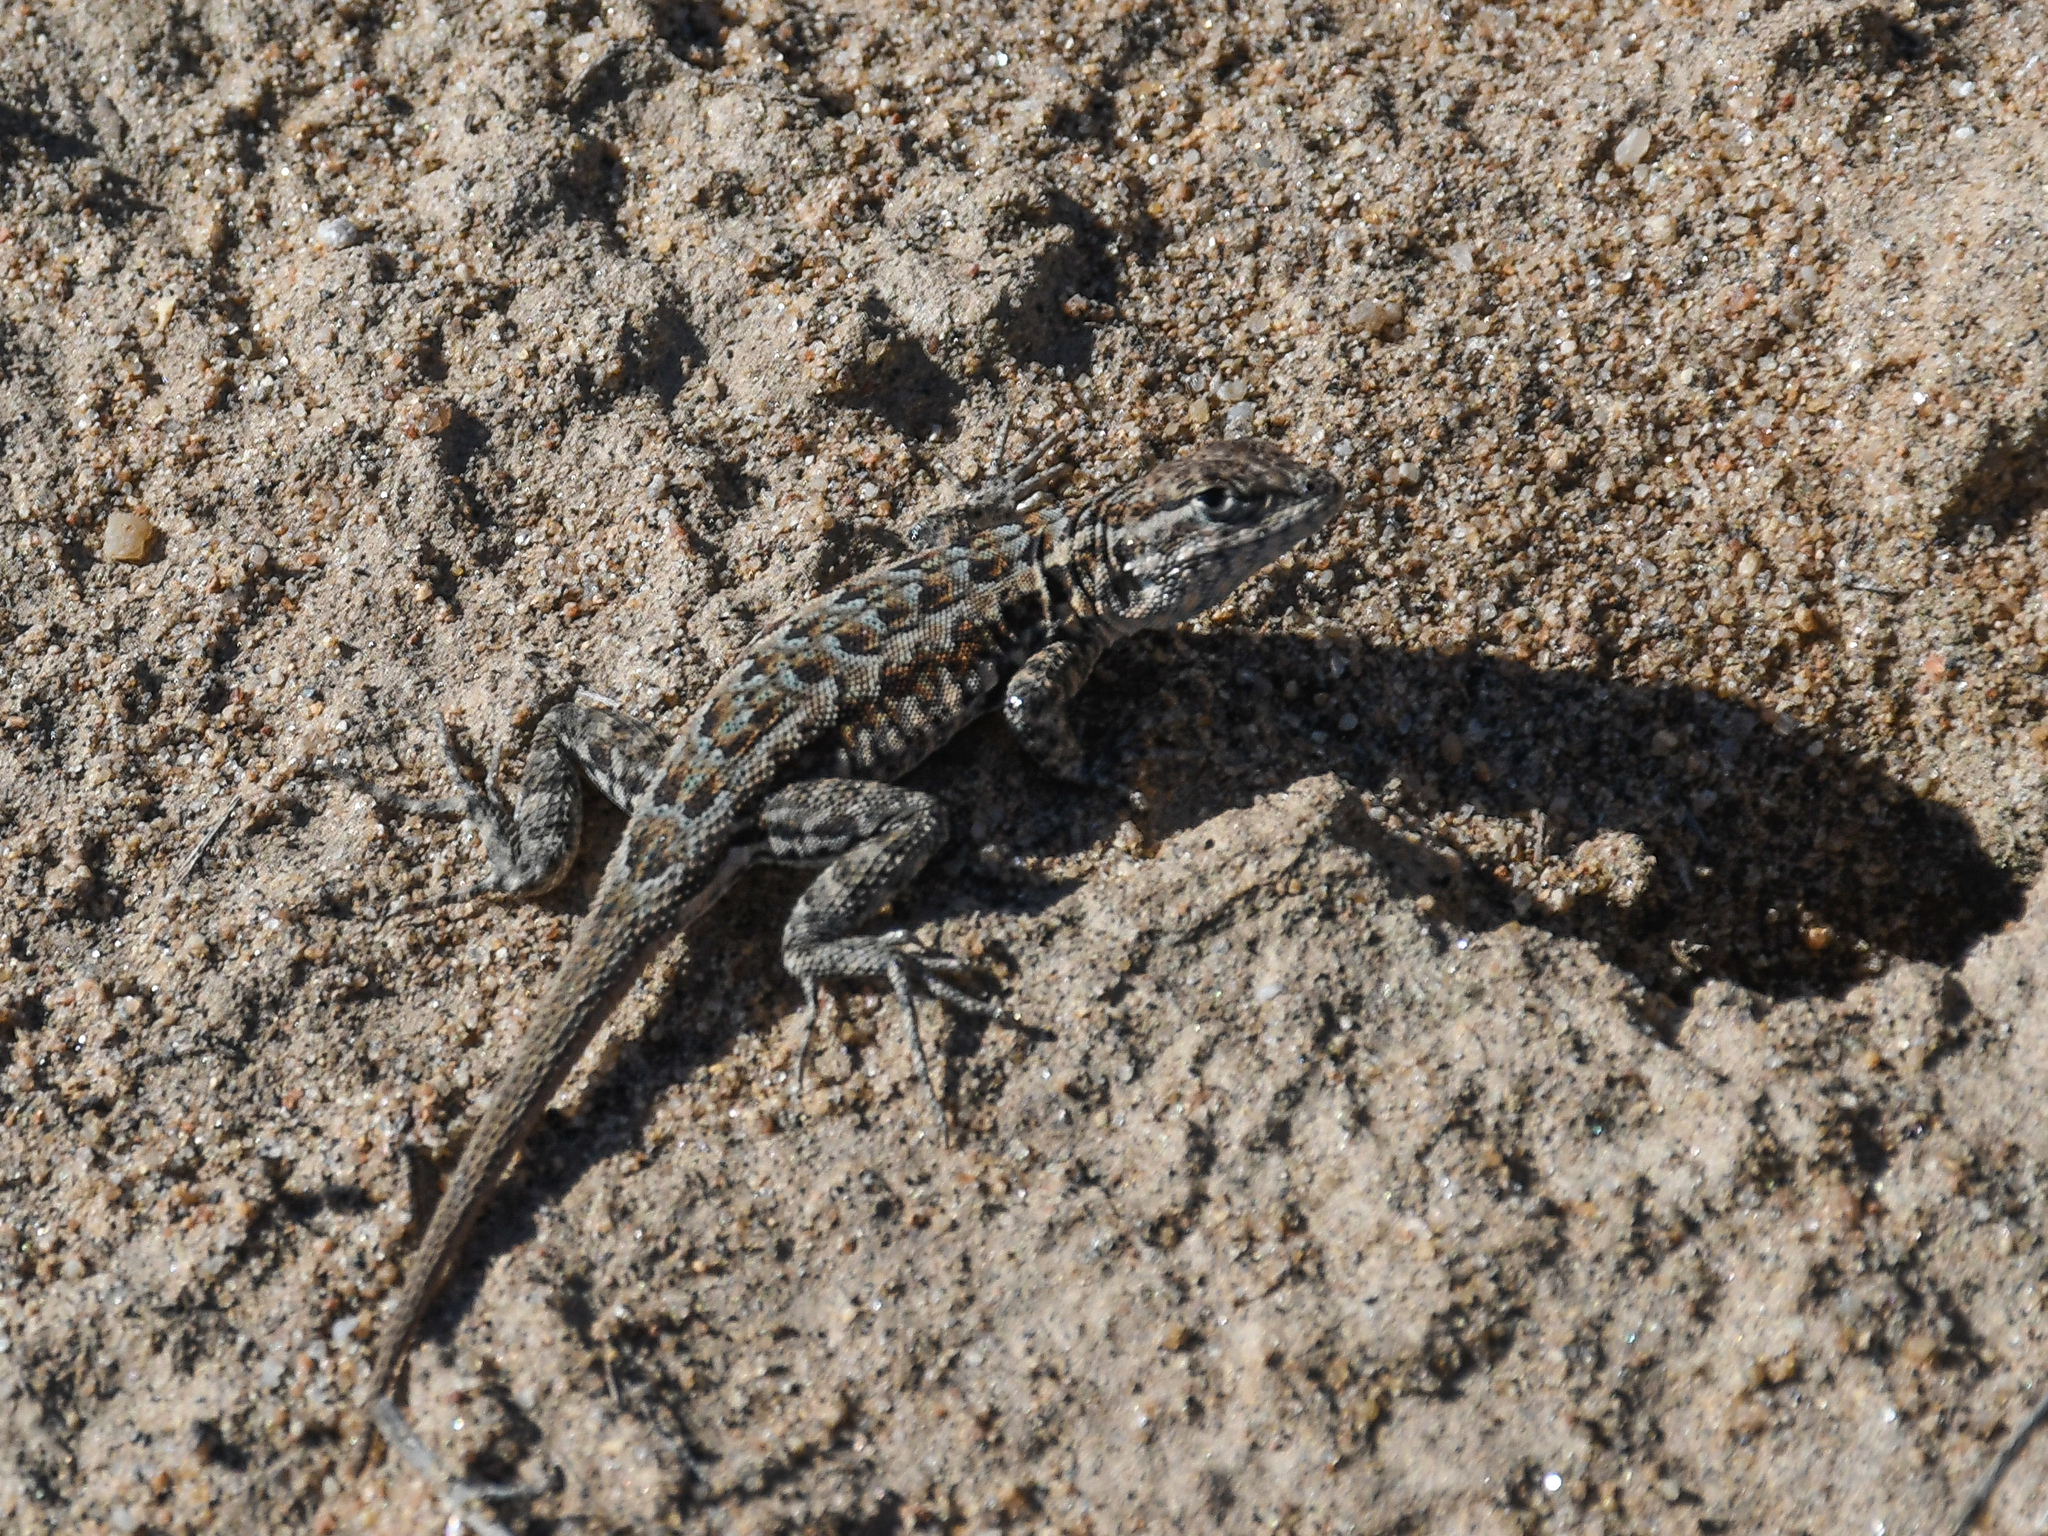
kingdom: Animalia
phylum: Chordata
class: Squamata
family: Phrynosomatidae
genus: Uta
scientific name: Uta stansburiana
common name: Side-blotched lizard
